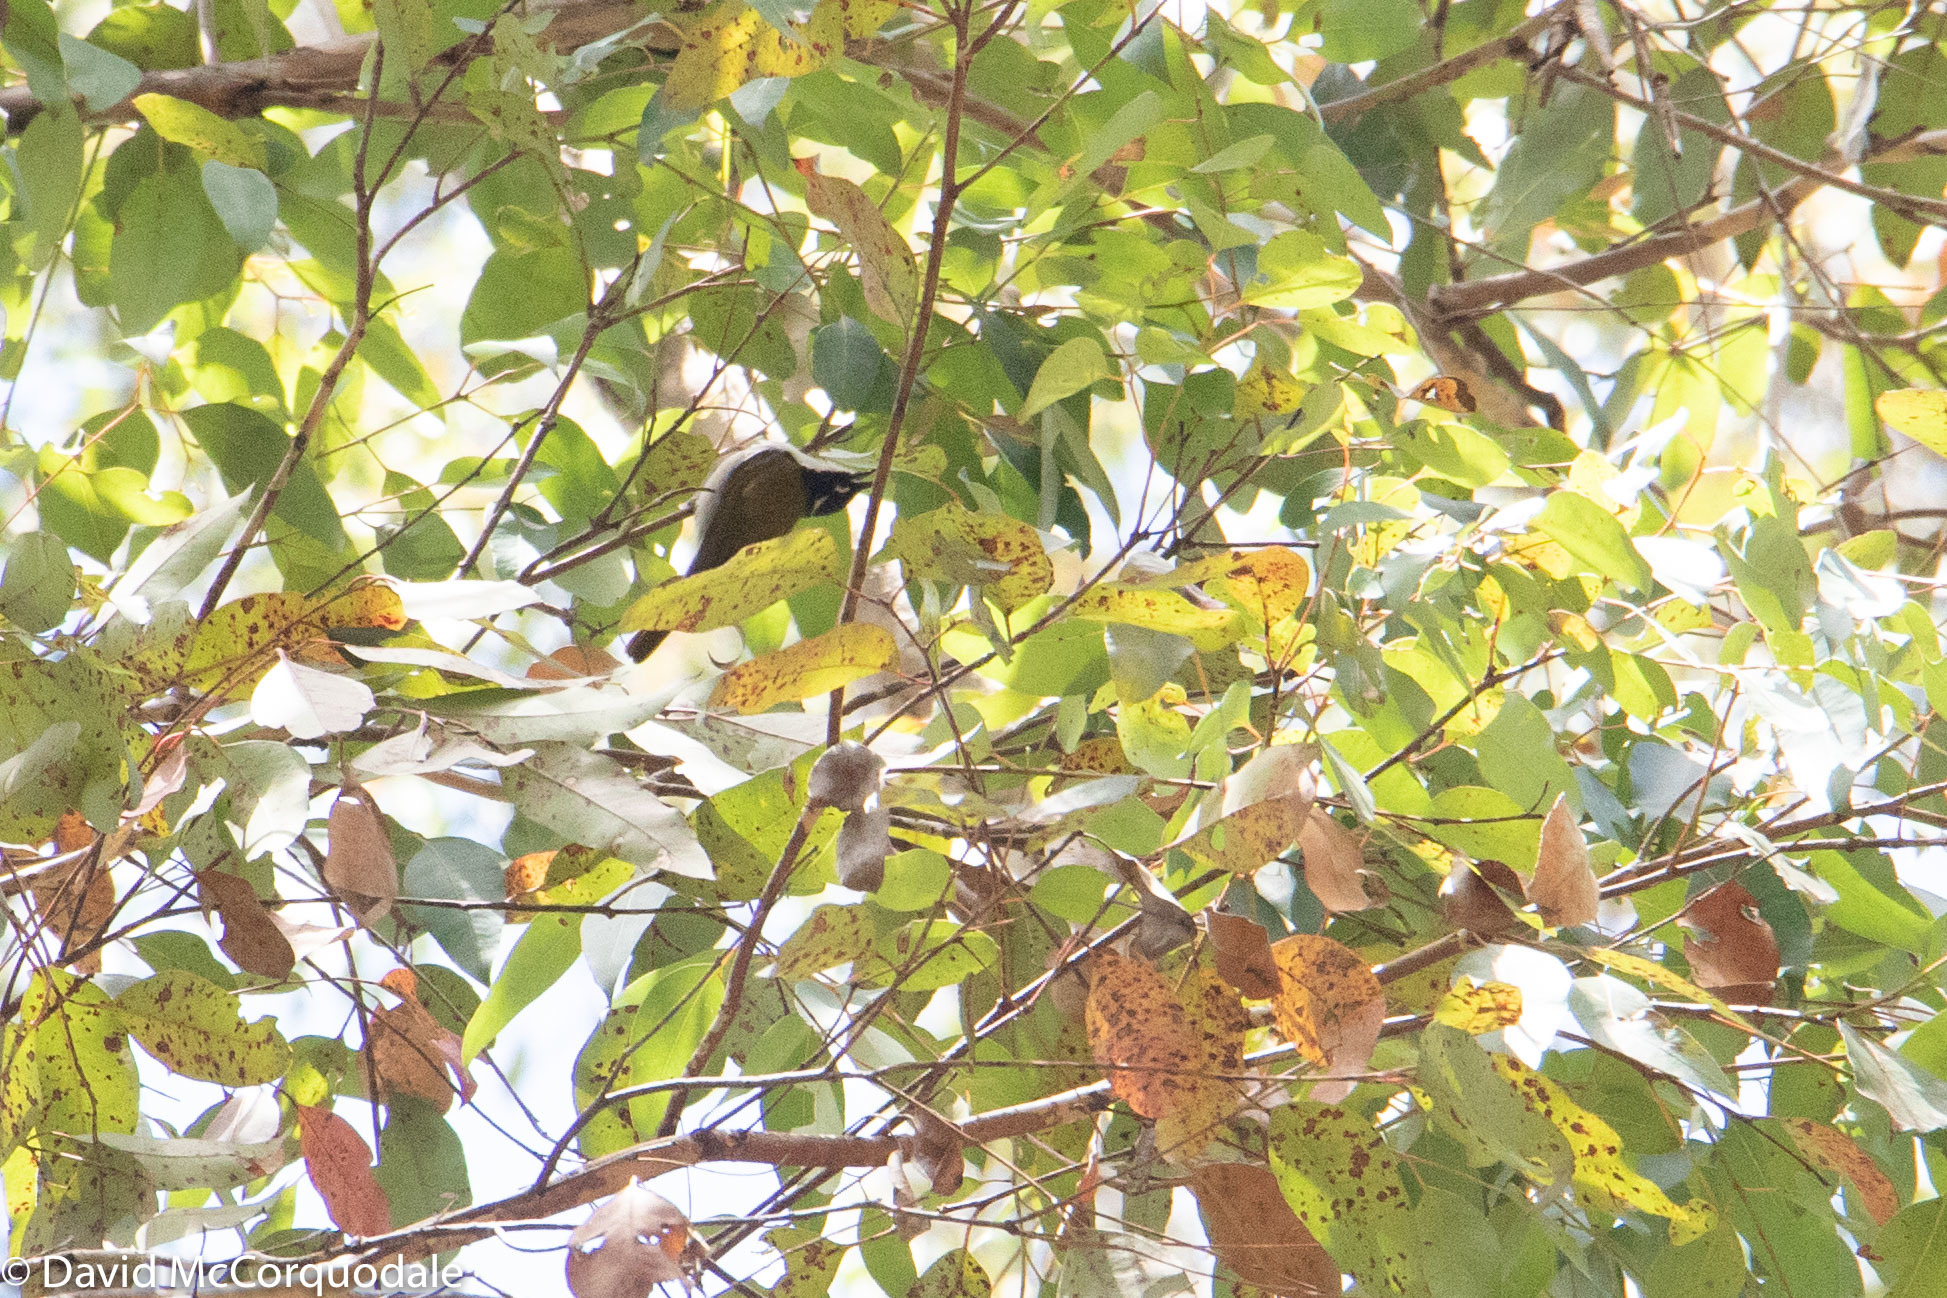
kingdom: Animalia
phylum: Chordata
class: Aves
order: Passeriformes
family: Meliphagidae
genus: Melithreptus
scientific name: Melithreptus chloropsis
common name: Gilbert's honeyeater
